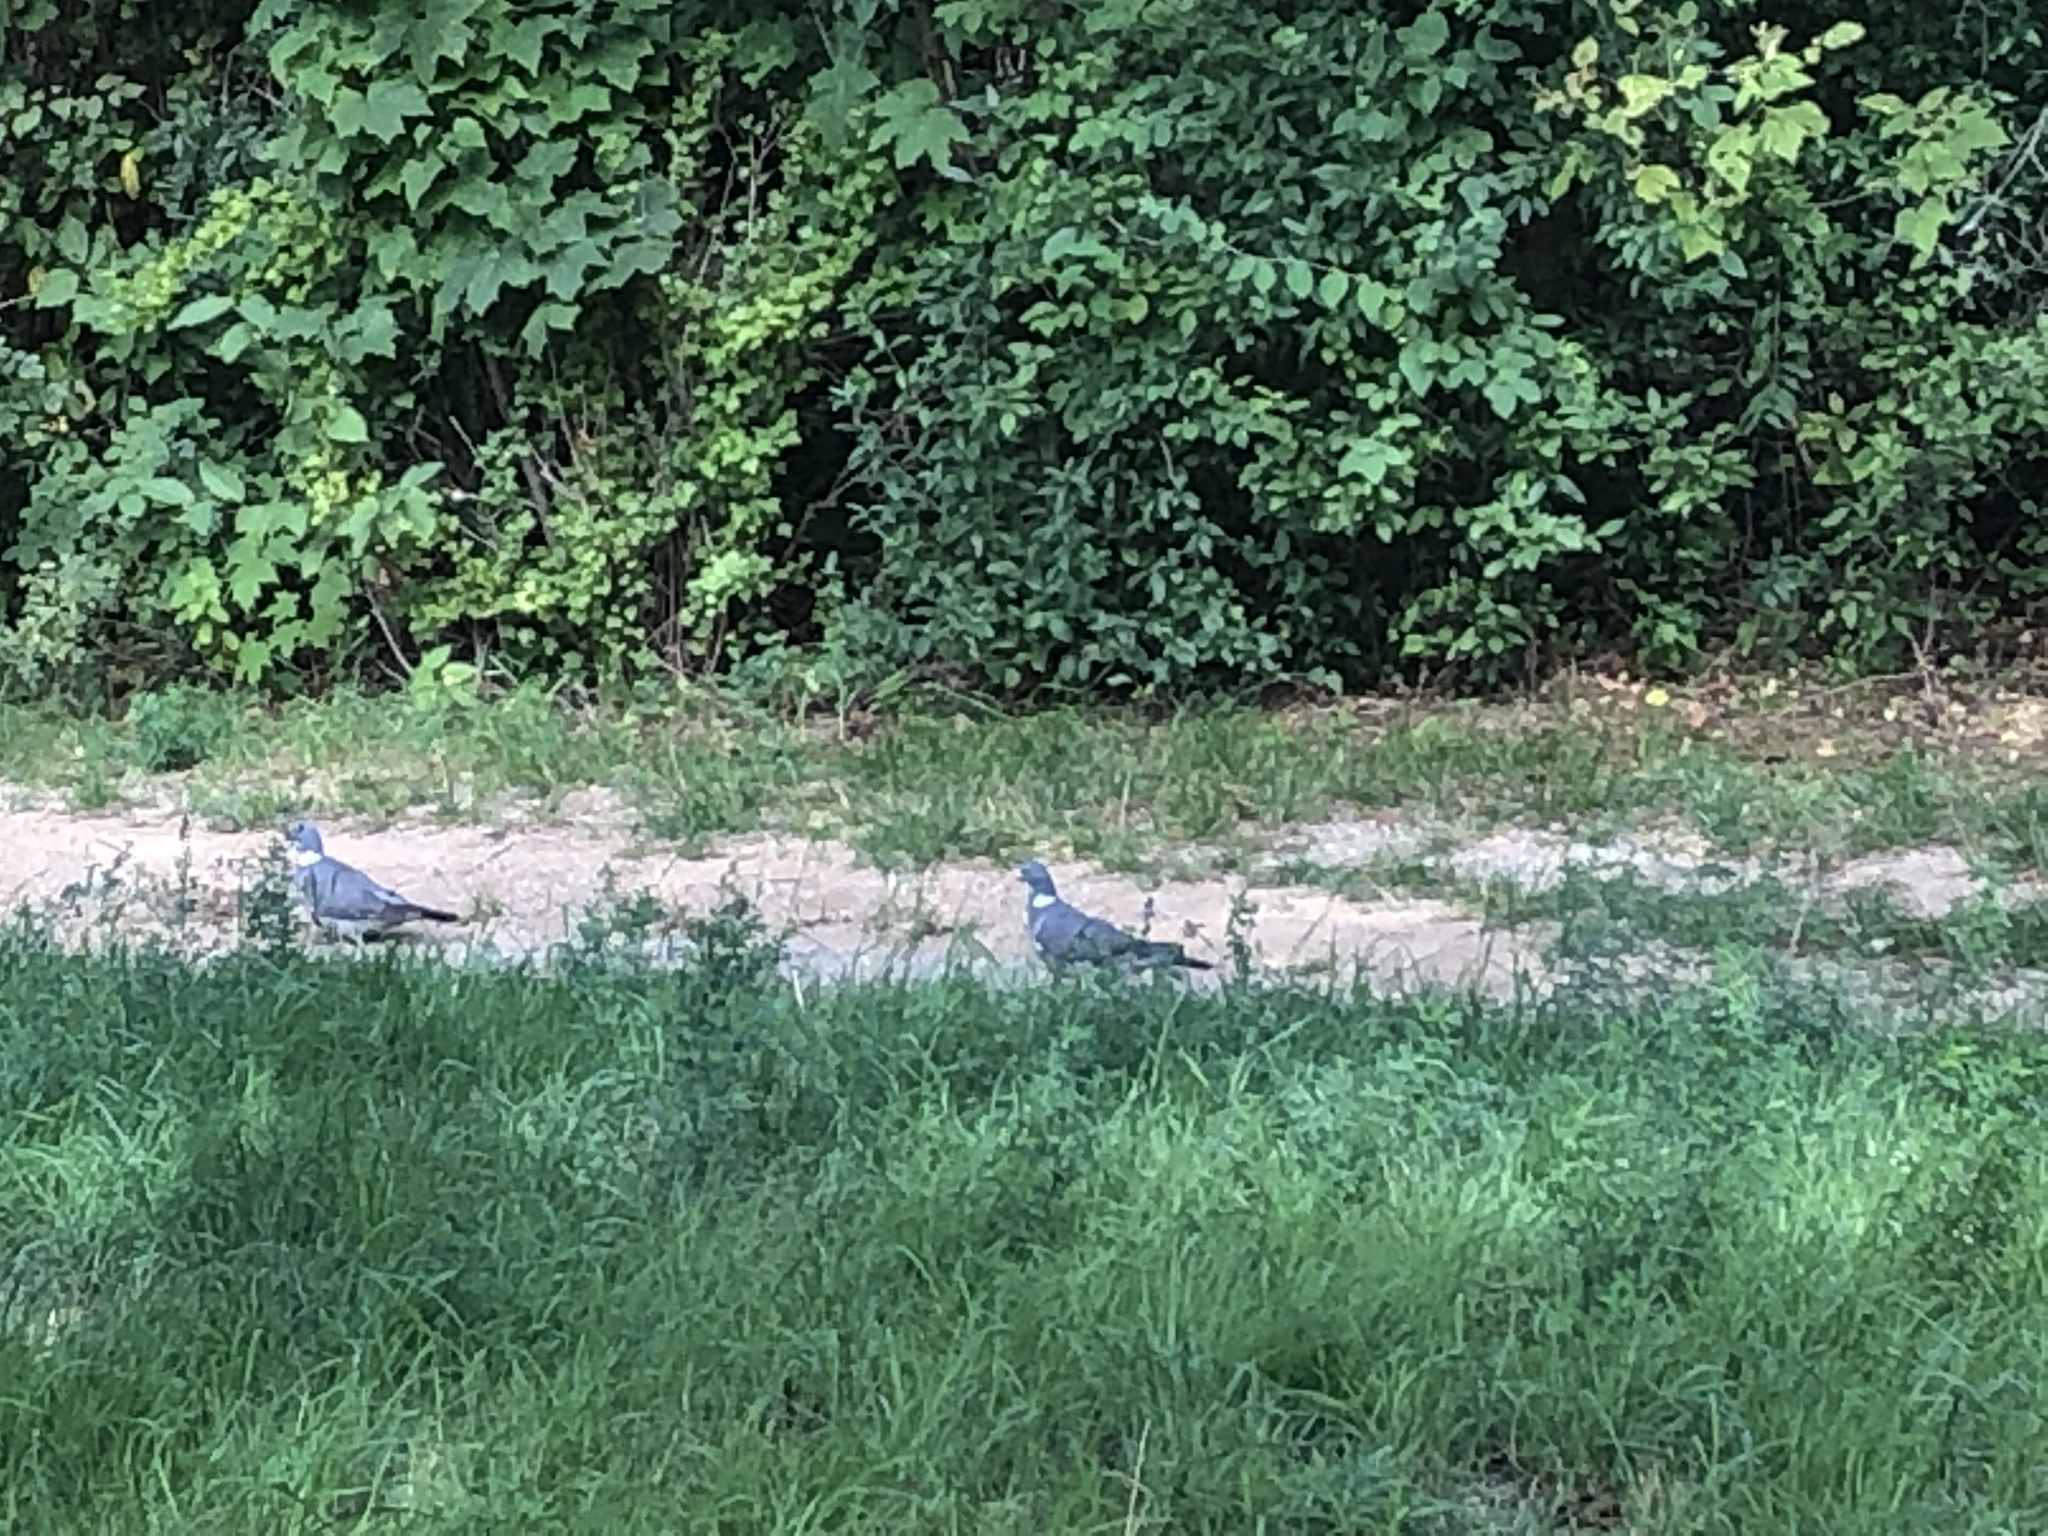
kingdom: Animalia
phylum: Chordata
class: Aves
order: Columbiformes
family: Columbidae
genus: Columba
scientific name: Columba palumbus
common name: Common wood pigeon
